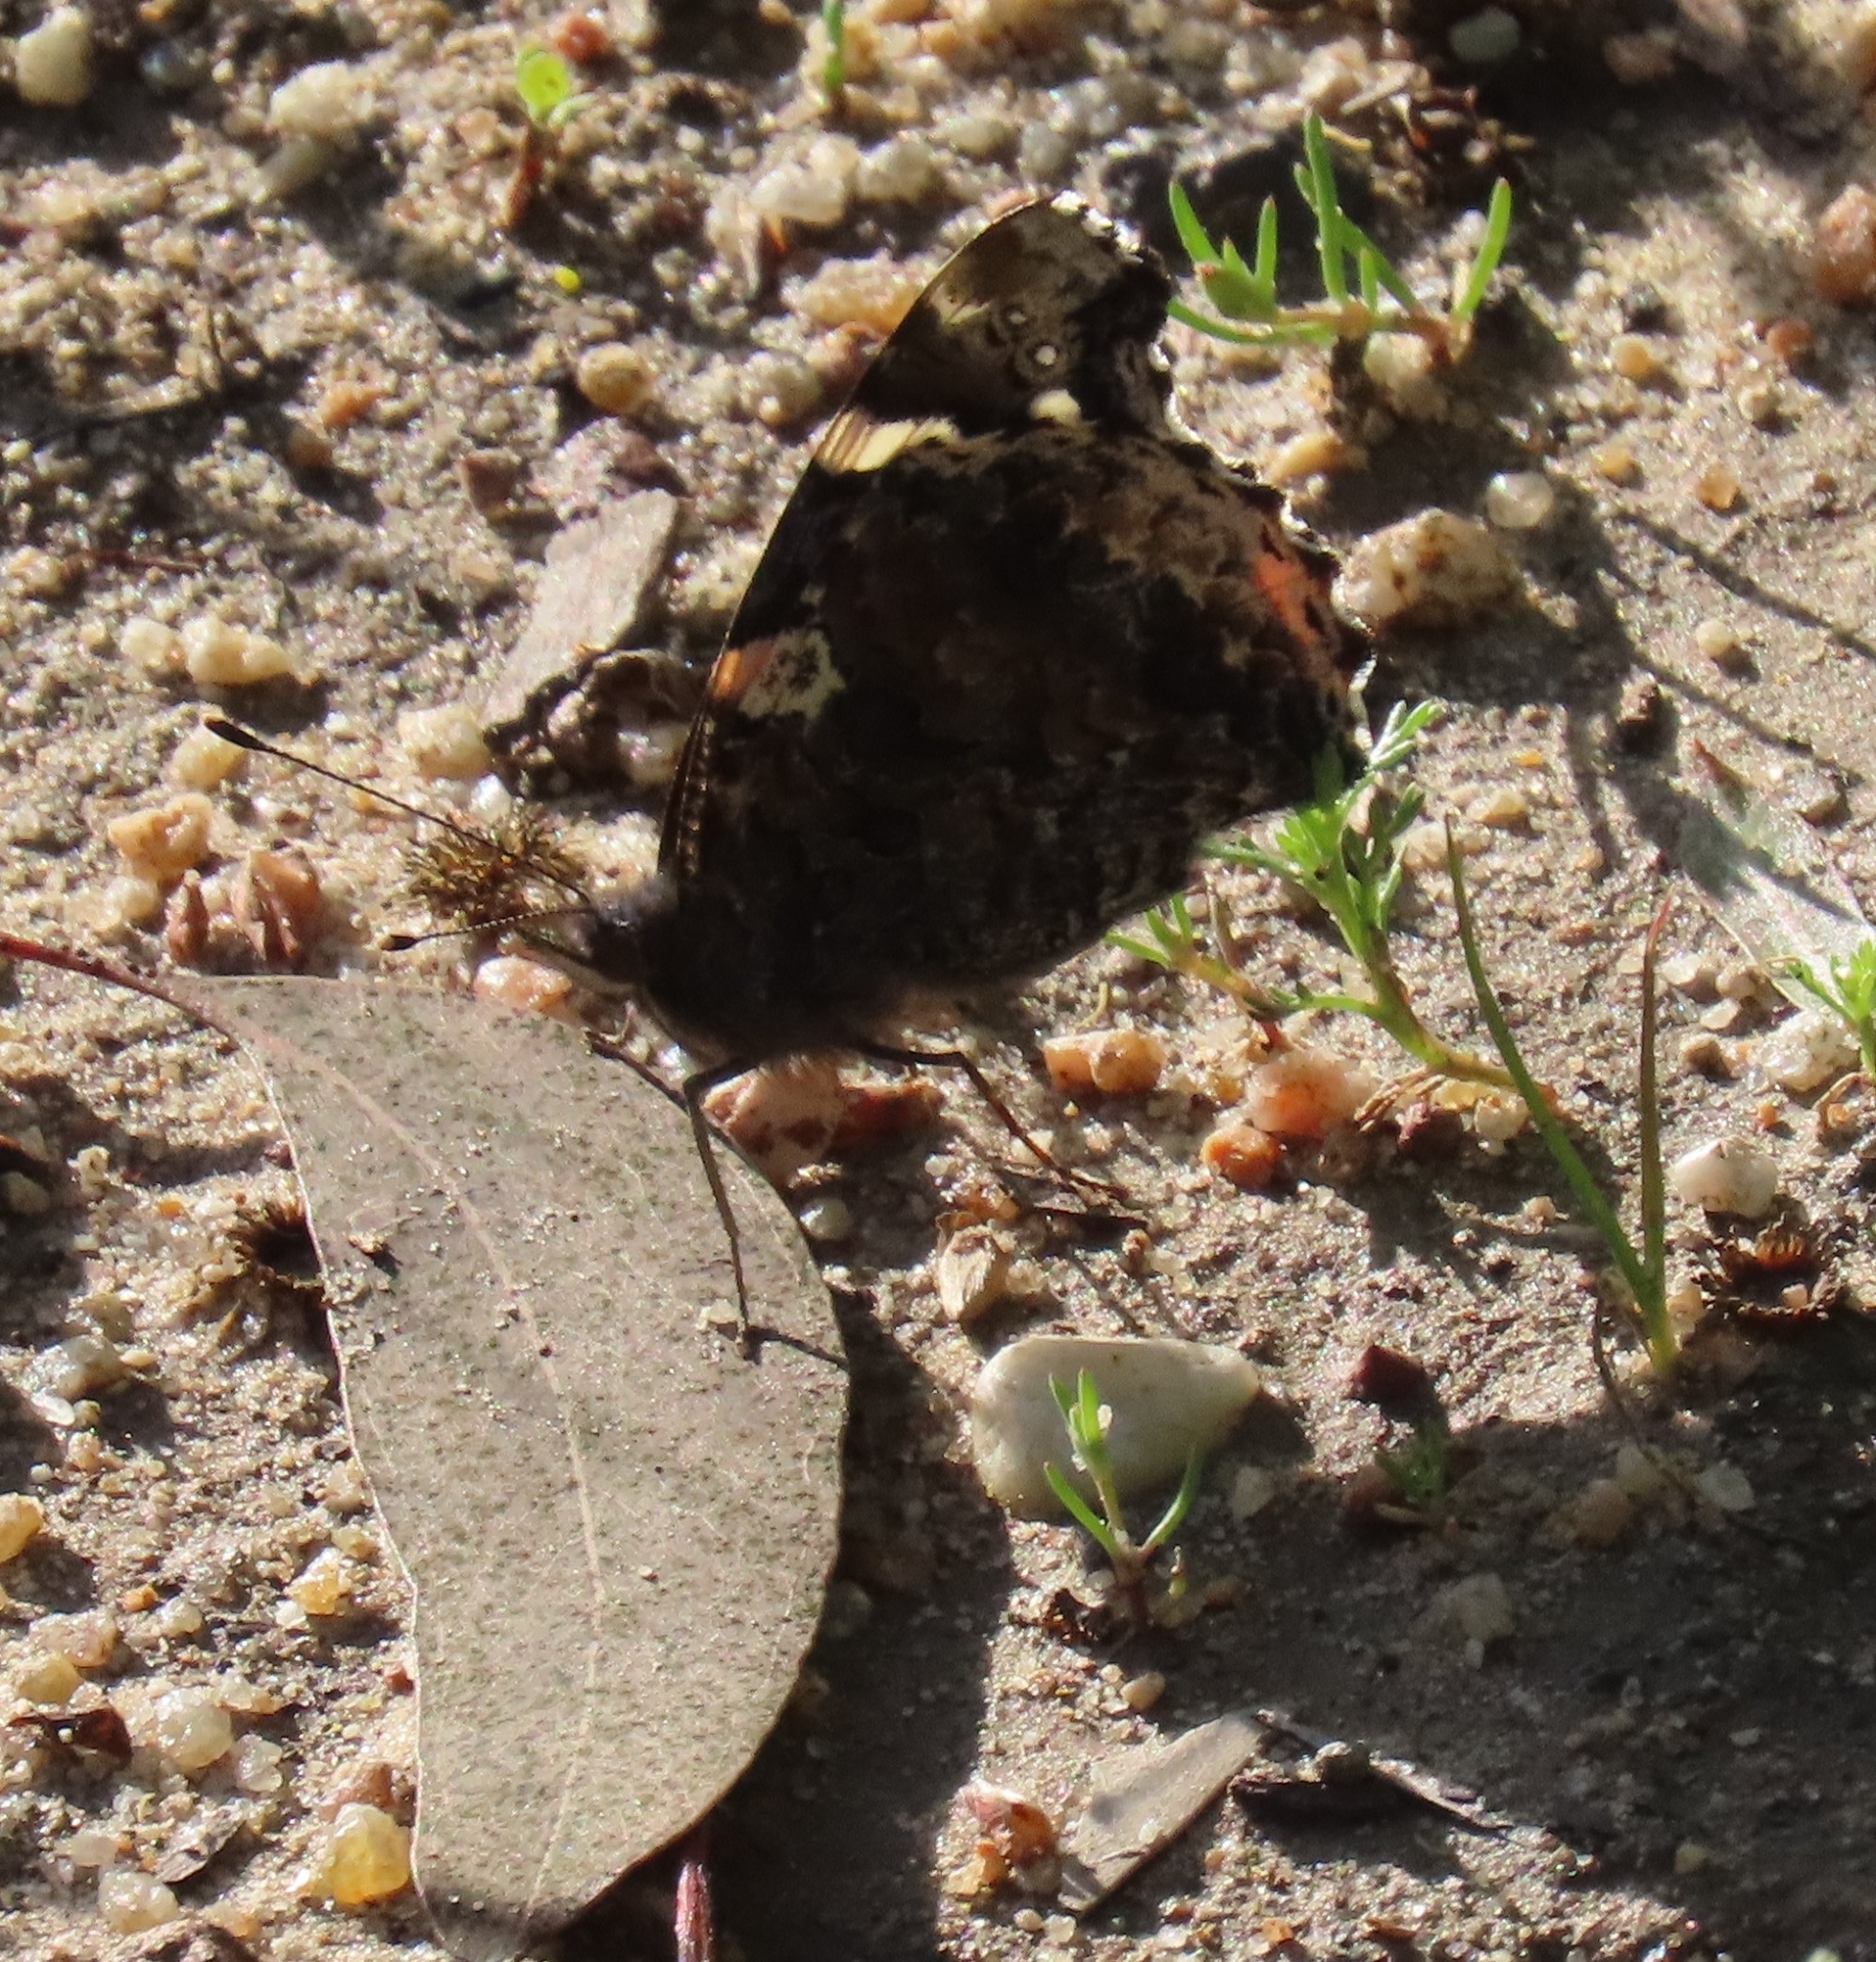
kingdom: Animalia
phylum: Arthropoda
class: Insecta
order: Lepidoptera
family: Nymphalidae
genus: Vanessa
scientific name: Vanessa atalanta
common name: Red admiral
